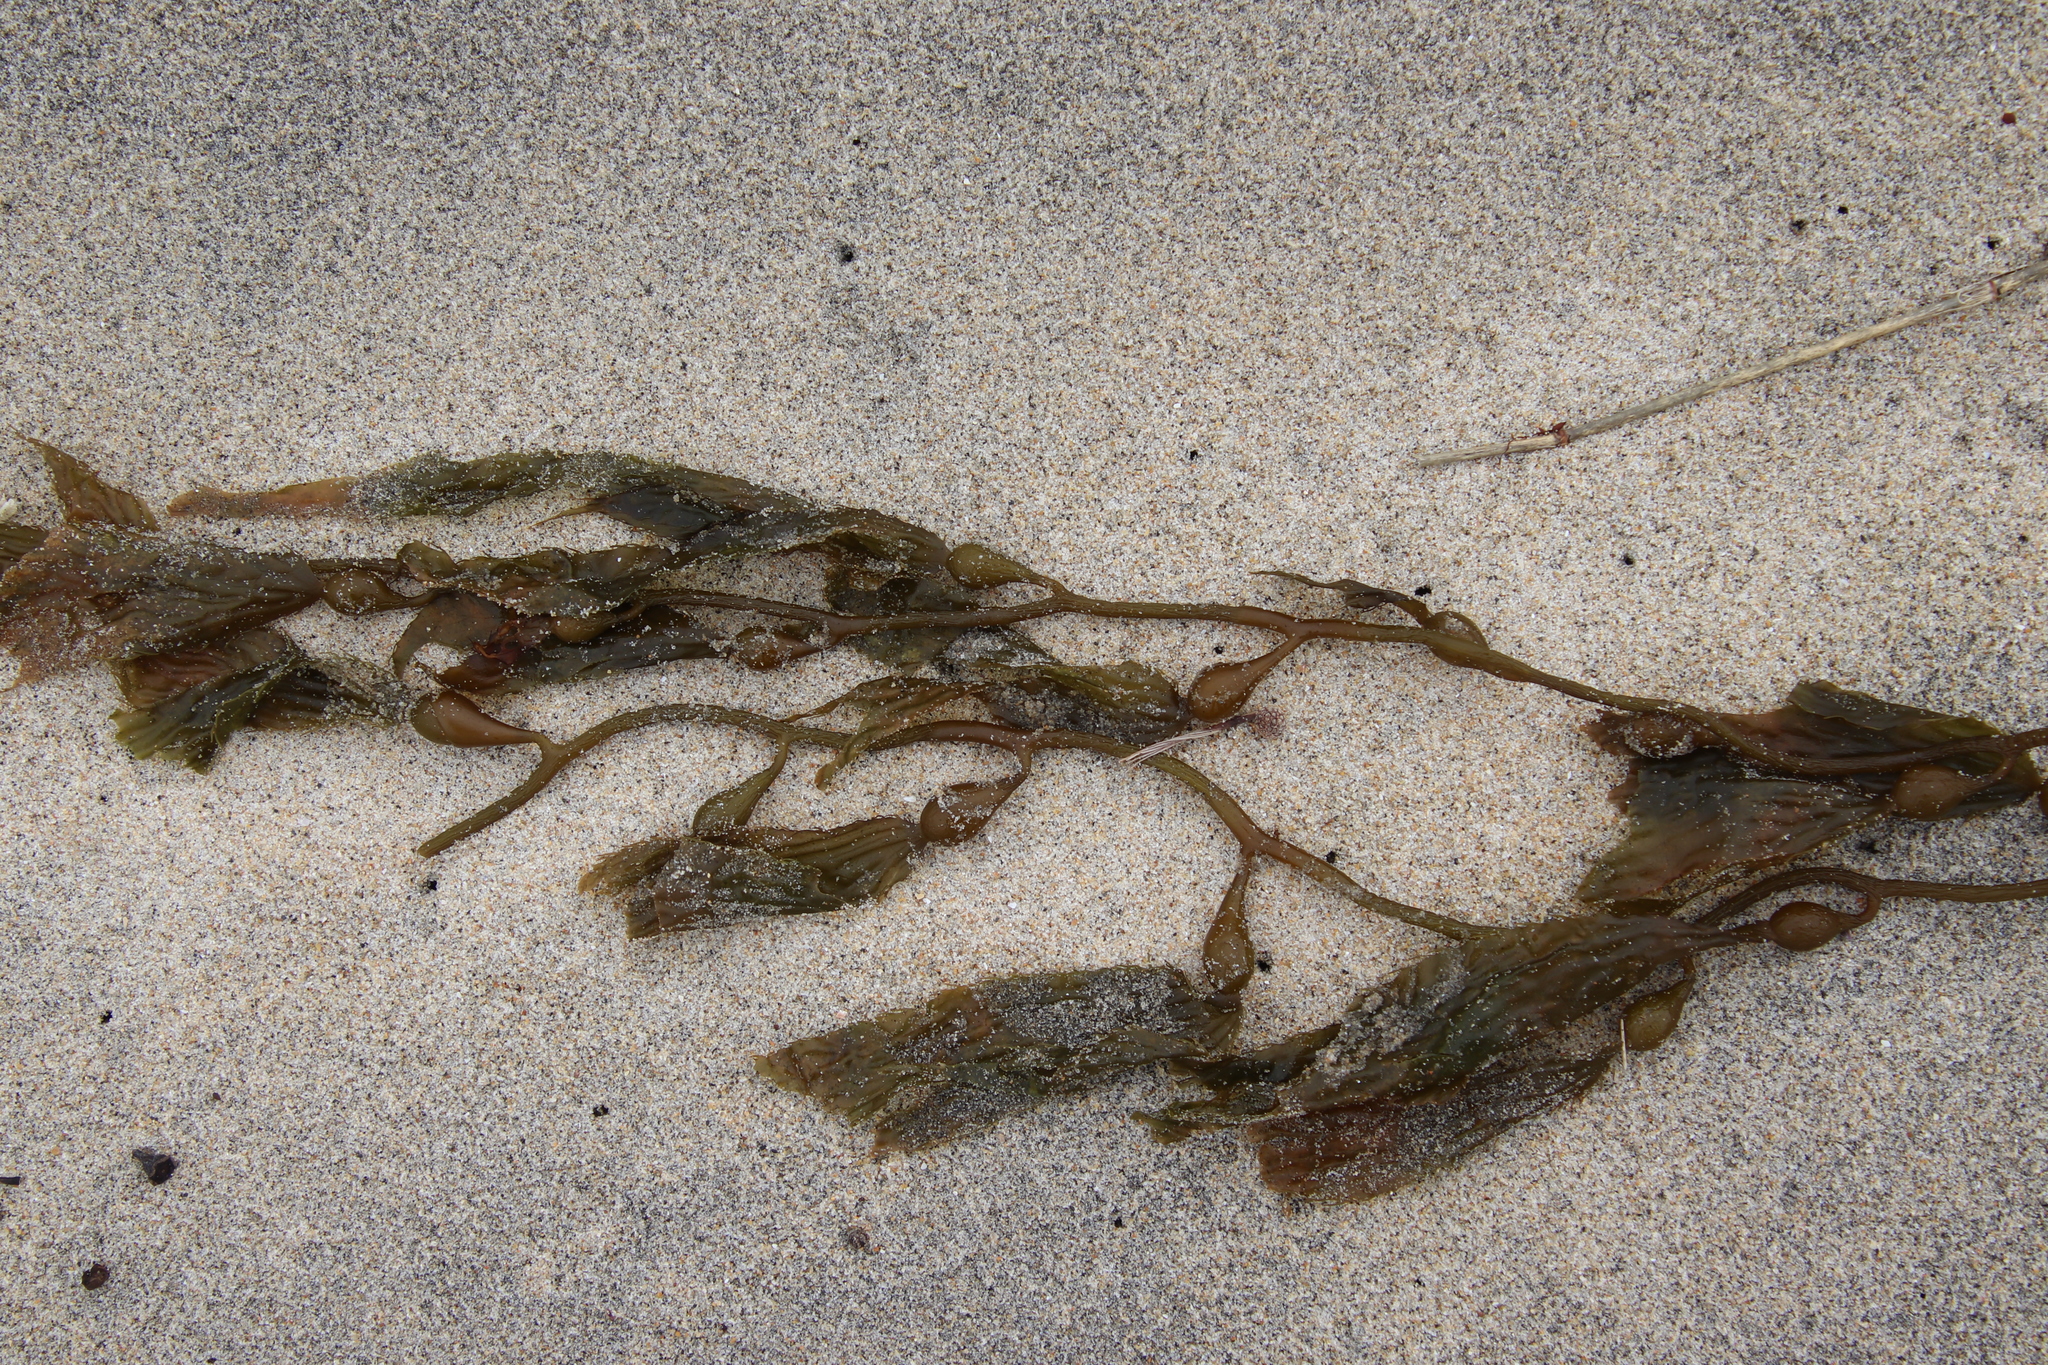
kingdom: Chromista
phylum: Ochrophyta
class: Phaeophyceae
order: Laminariales
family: Laminariaceae
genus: Macrocystis
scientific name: Macrocystis pyrifera
